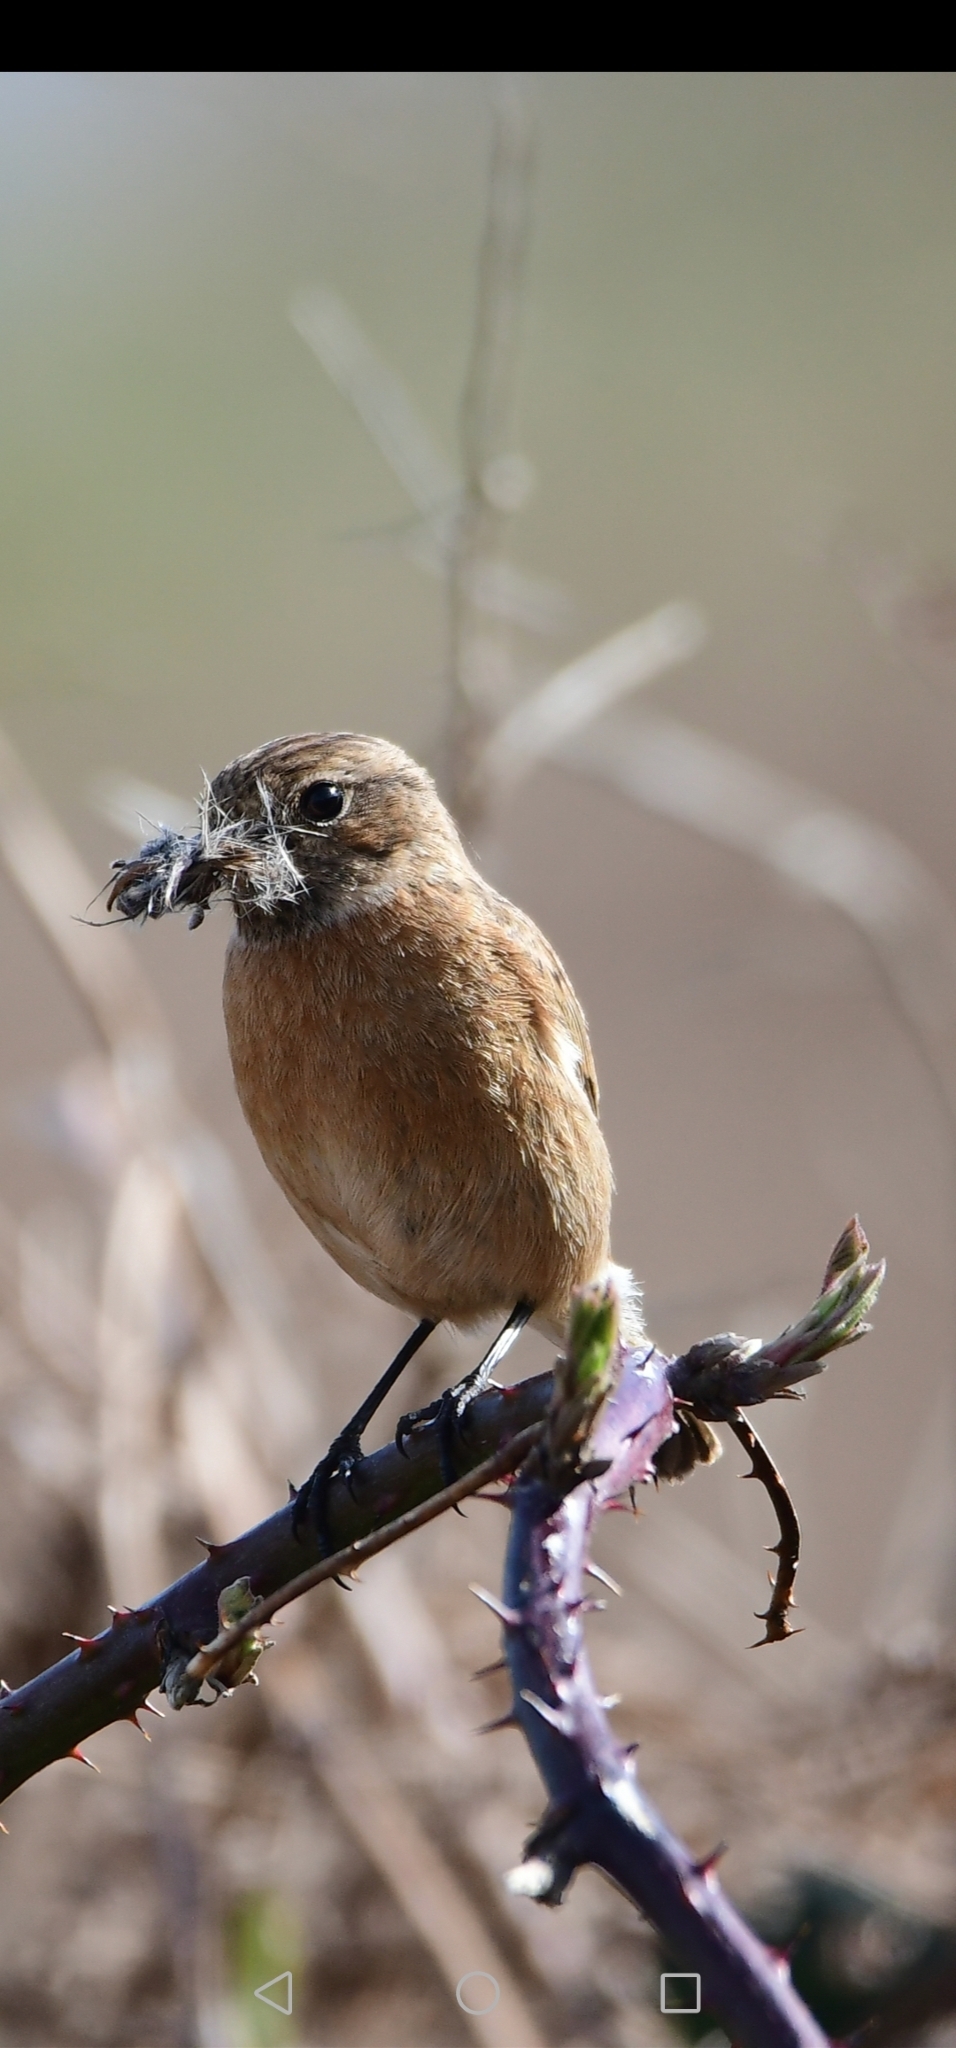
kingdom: Animalia
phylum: Chordata
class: Aves
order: Passeriformes
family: Muscicapidae
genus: Saxicola
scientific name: Saxicola rubicola
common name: European stonechat
